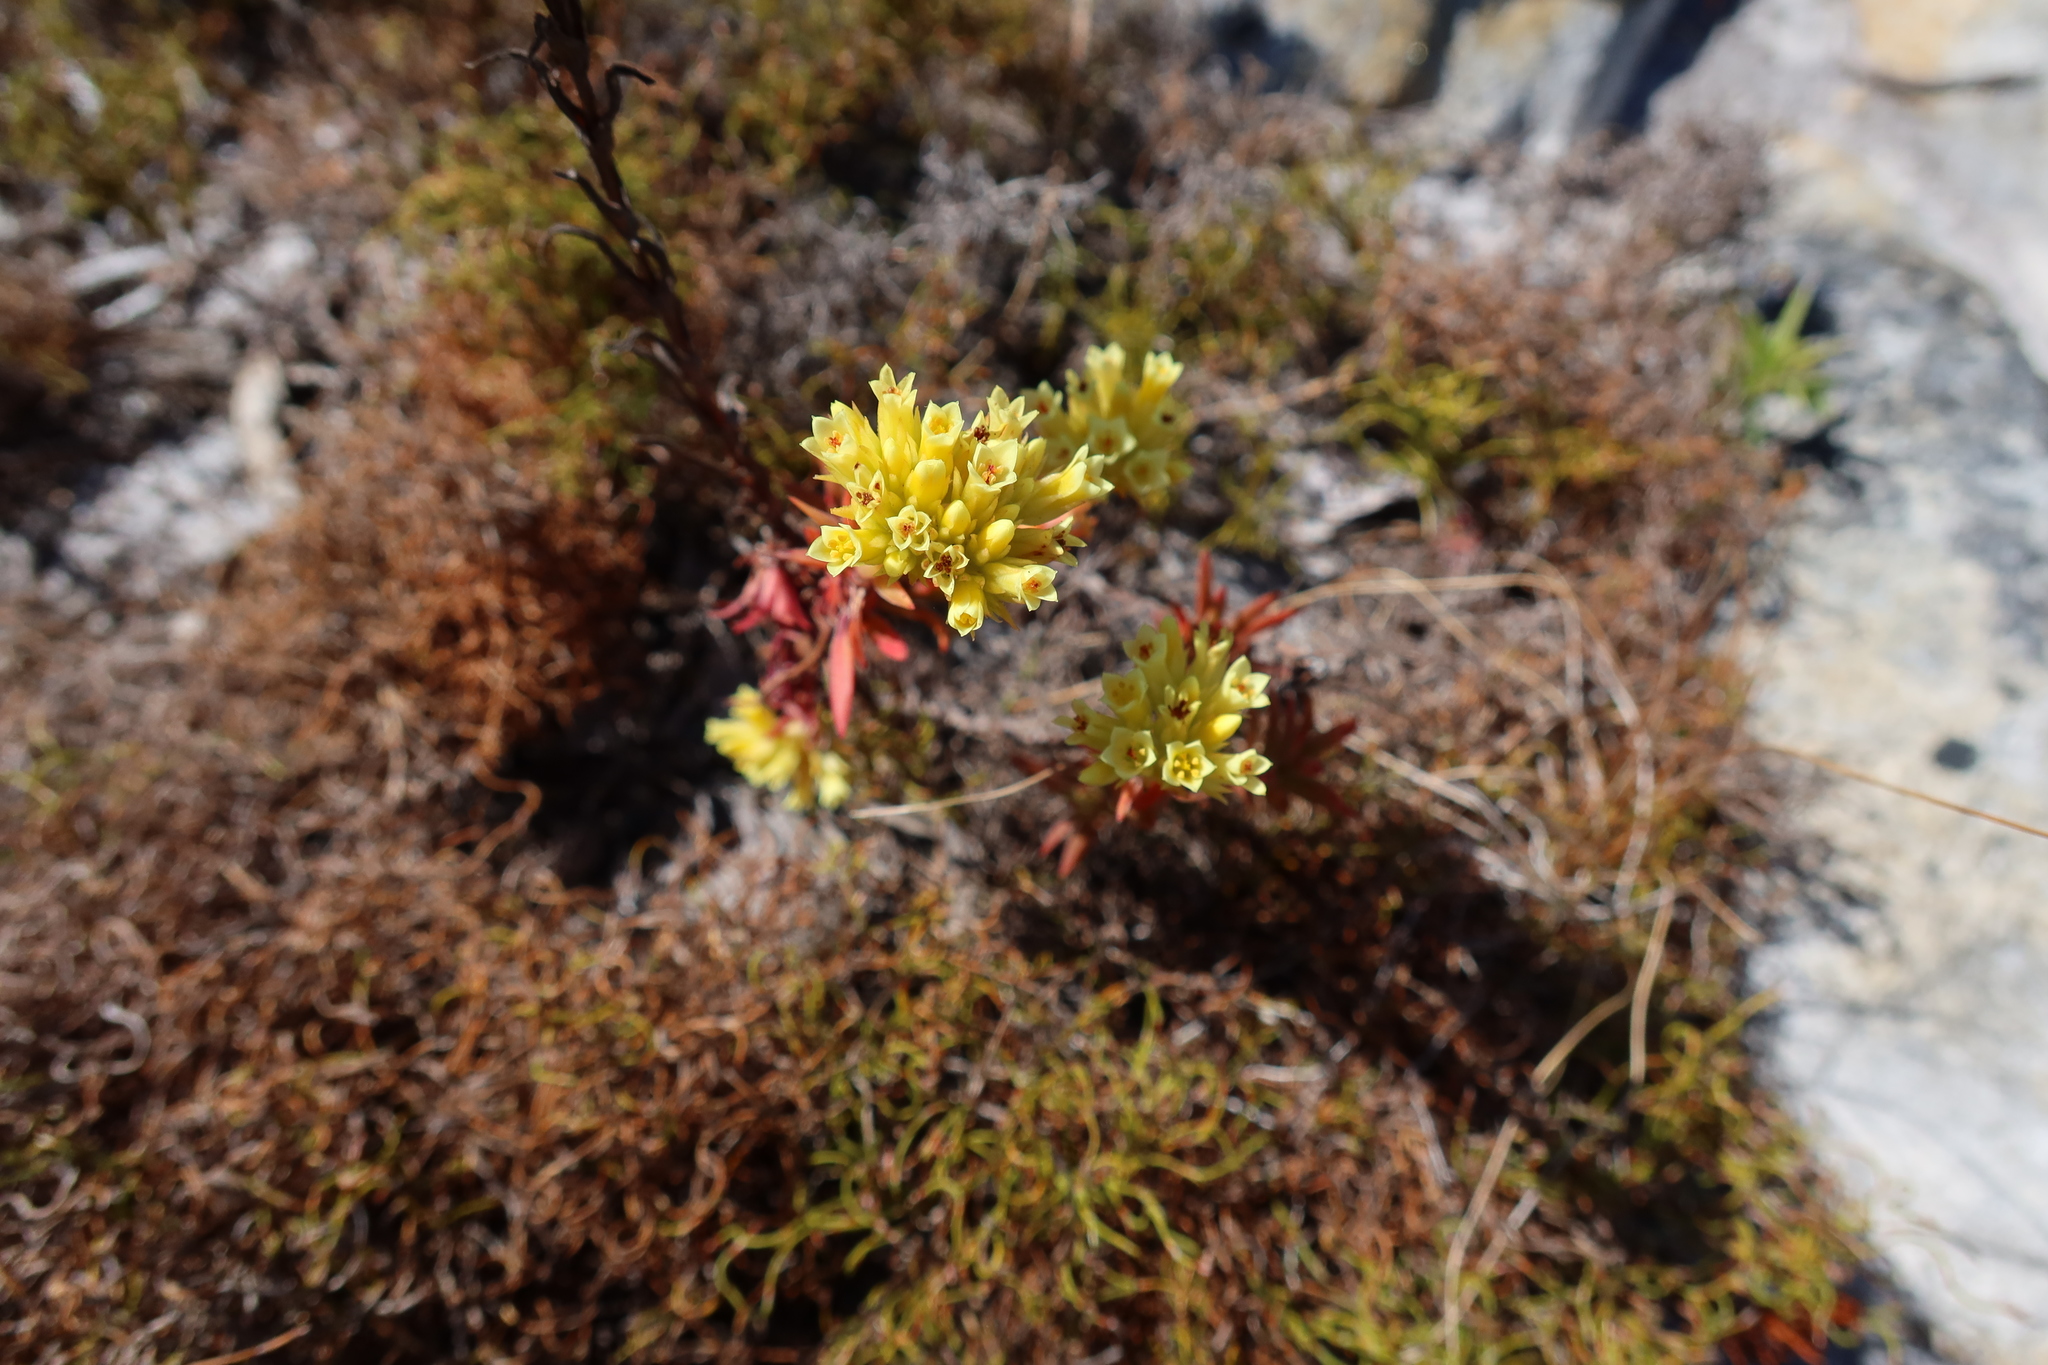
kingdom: Plantae
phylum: Tracheophyta
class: Magnoliopsida
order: Saxifragales
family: Crassulaceae
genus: Crassula
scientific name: Crassula flava
